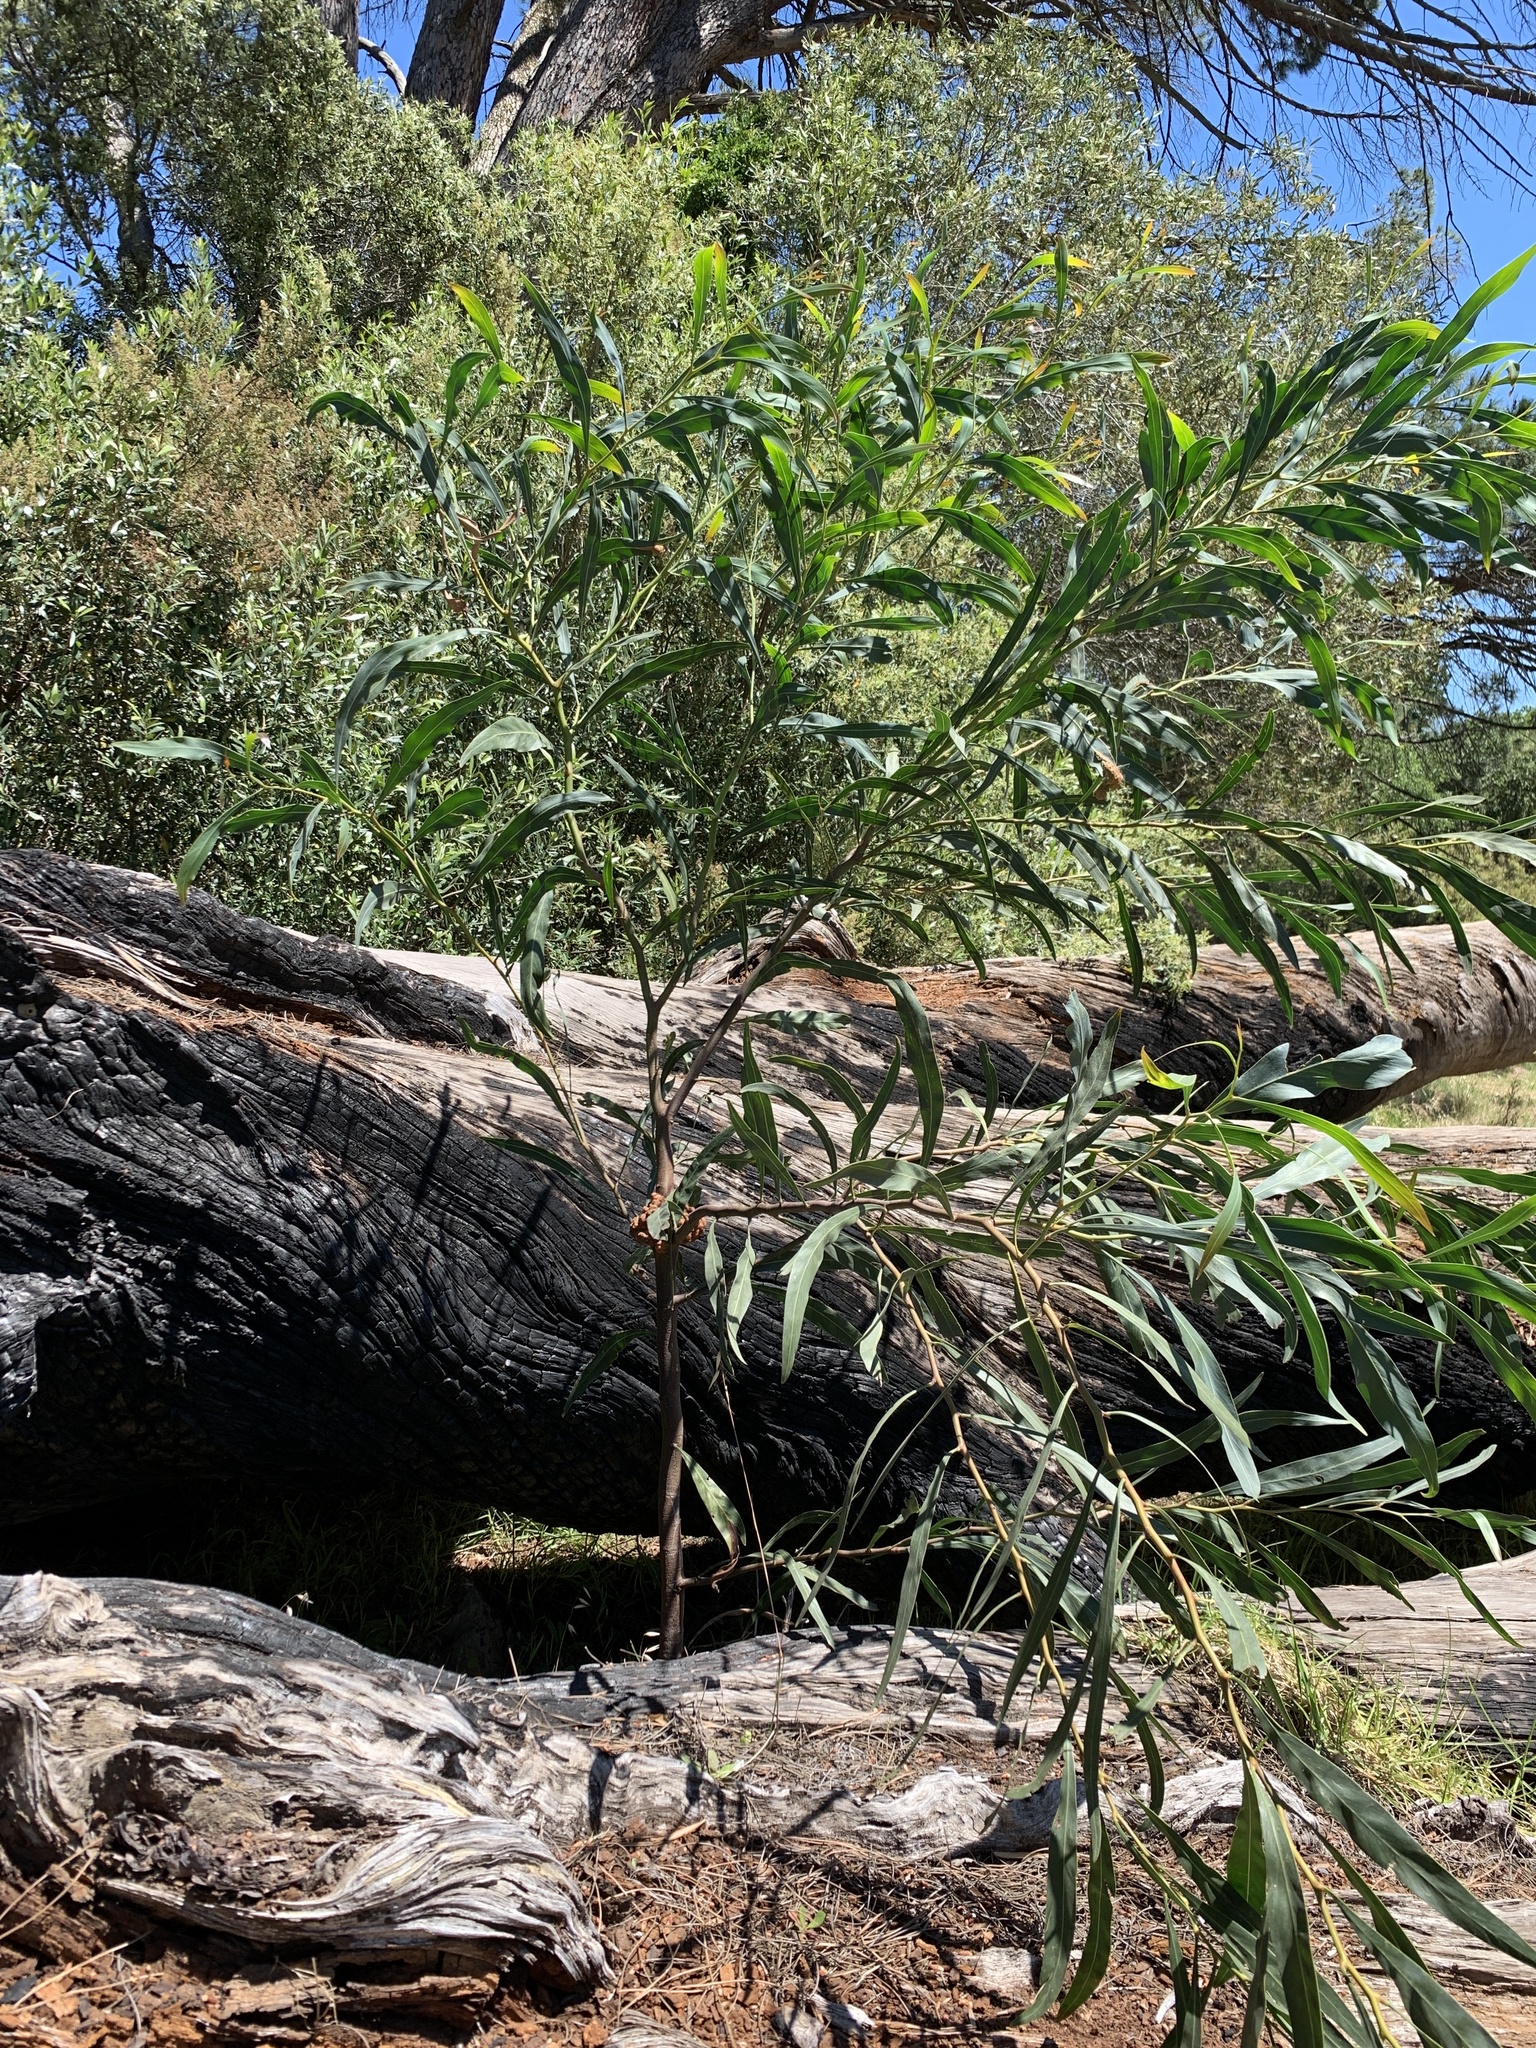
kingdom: Plantae
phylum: Tracheophyta
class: Magnoliopsida
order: Fabales
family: Fabaceae
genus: Acacia
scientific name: Acacia saligna
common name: Orange wattle
